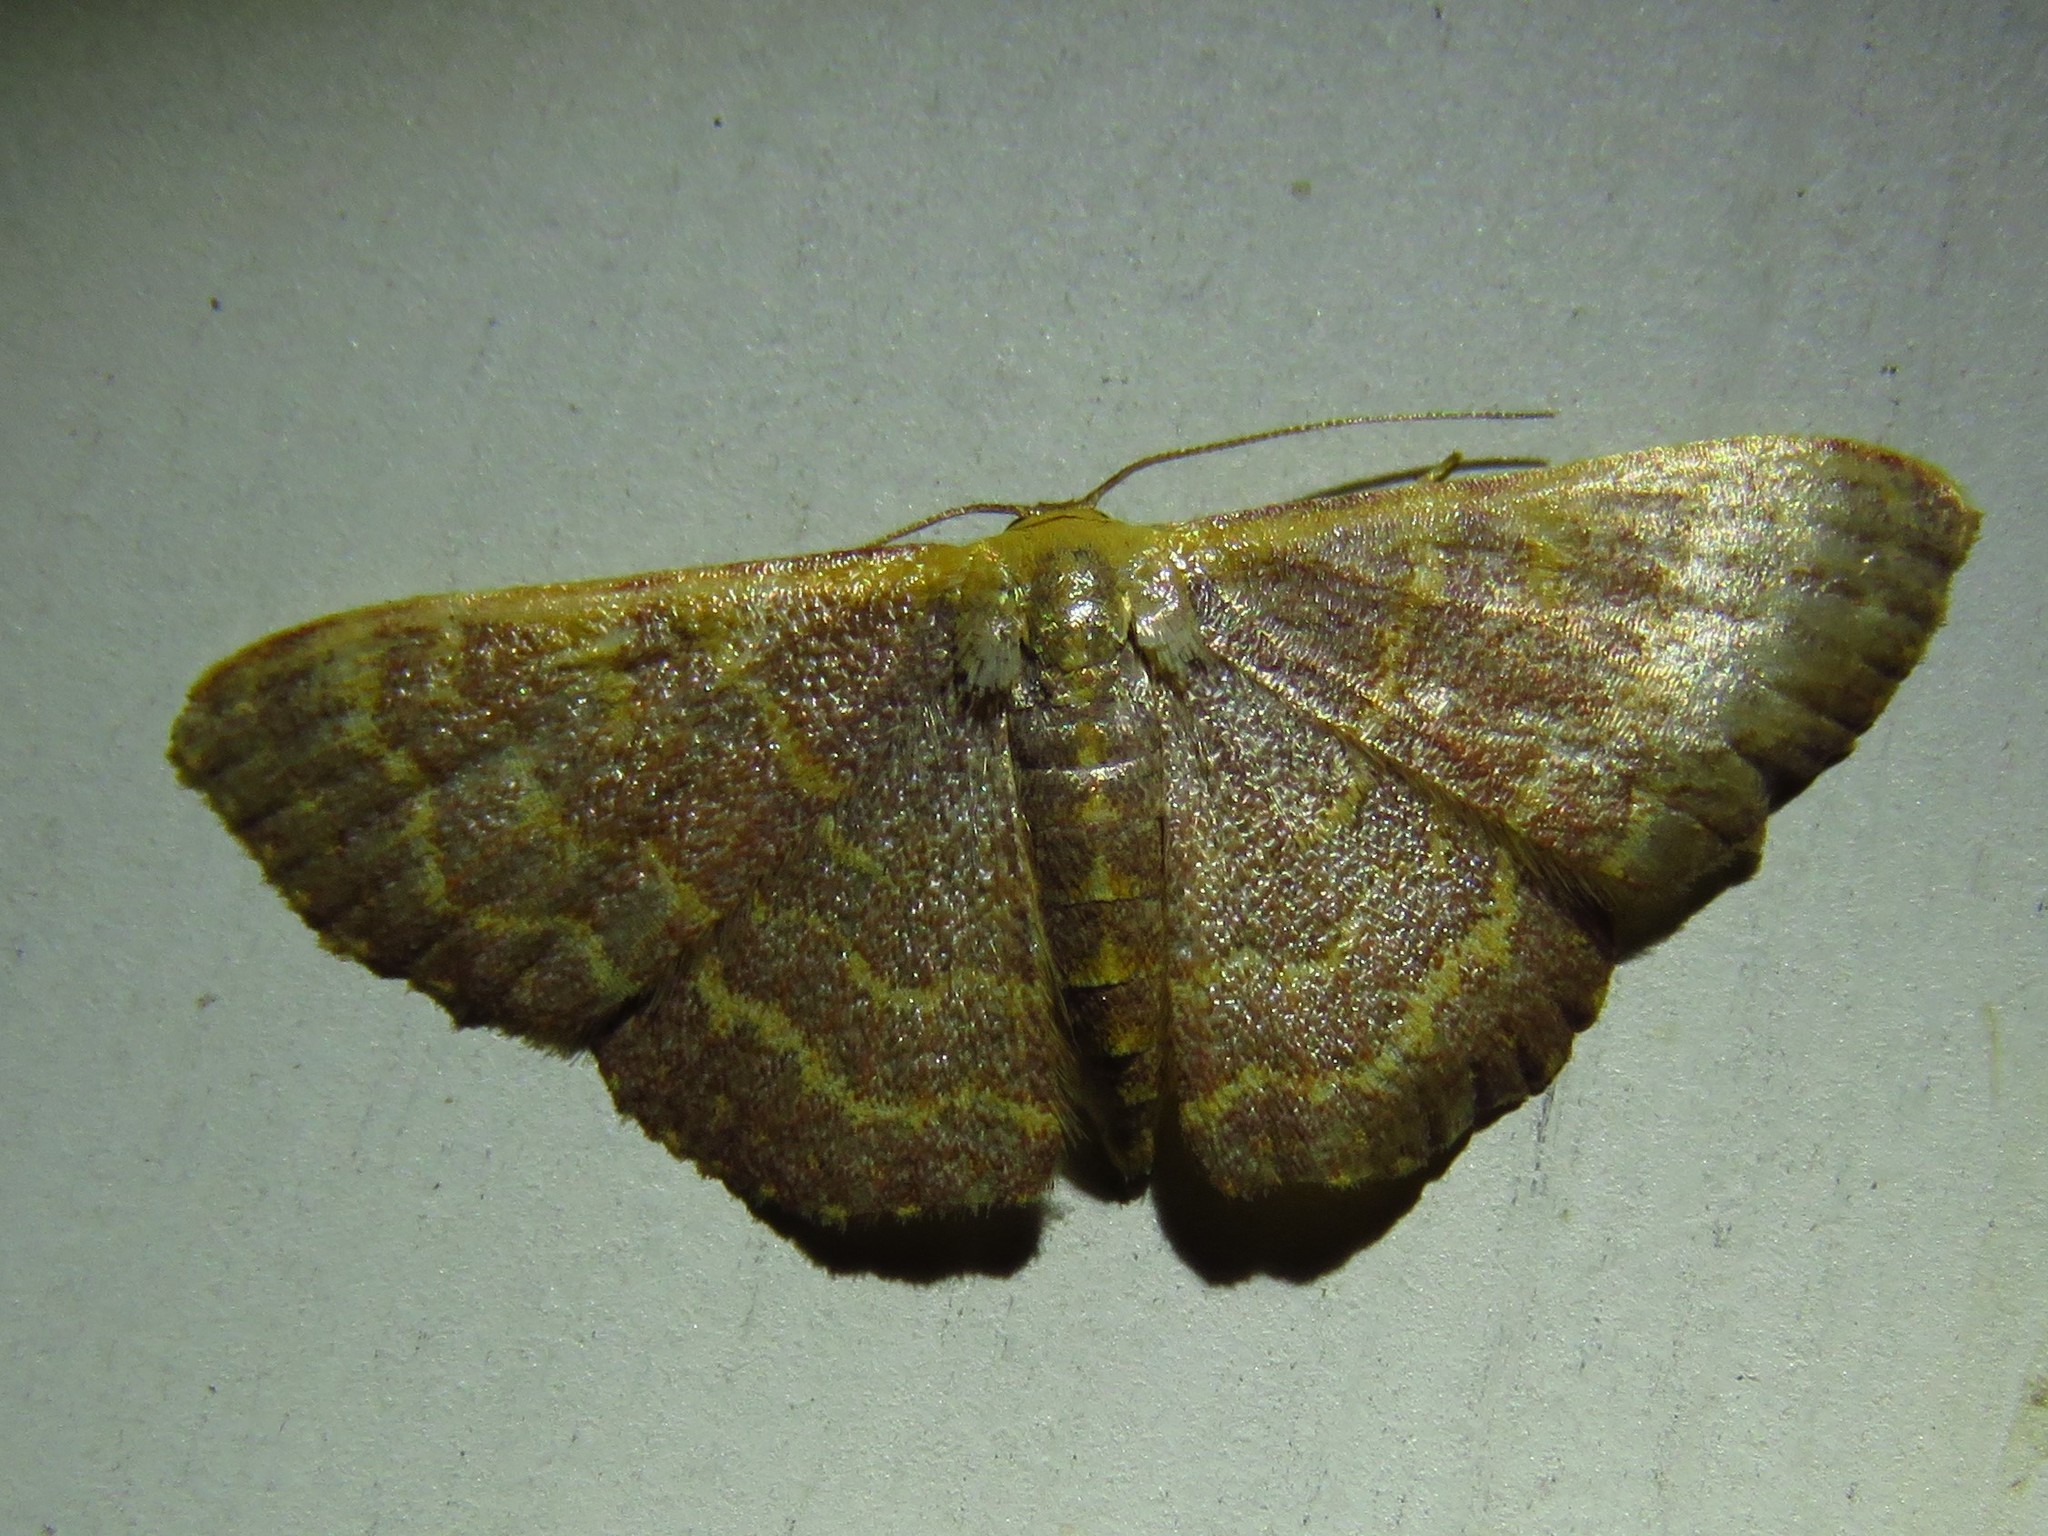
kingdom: Animalia
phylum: Arthropoda
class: Insecta
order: Lepidoptera
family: Geometridae
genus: Leptostales
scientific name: Leptostales pannaria
